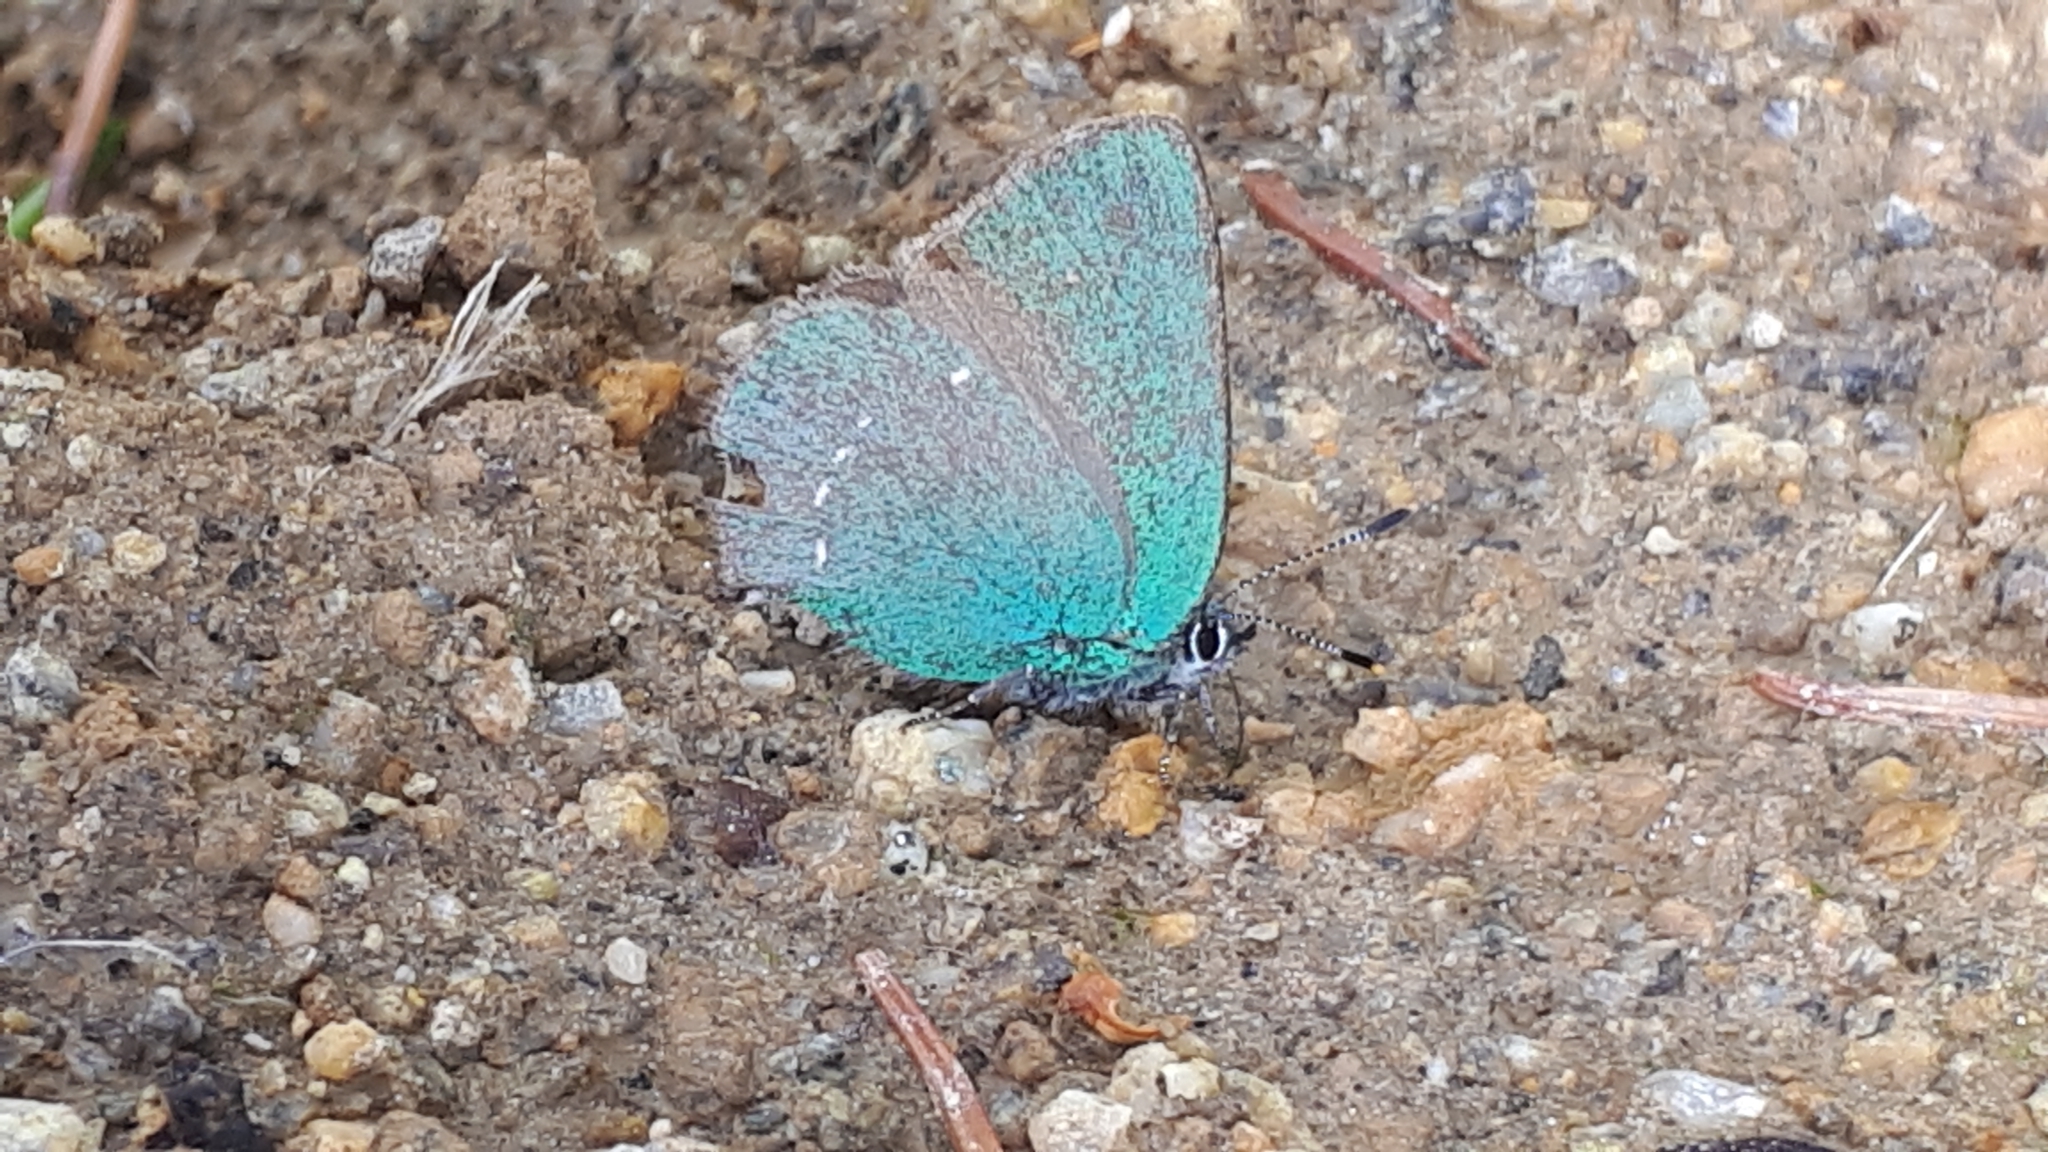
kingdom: Animalia
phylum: Arthropoda
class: Insecta
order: Lepidoptera
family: Lycaenidae
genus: Callophrys
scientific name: Callophrys rubi
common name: Green hairstreak
